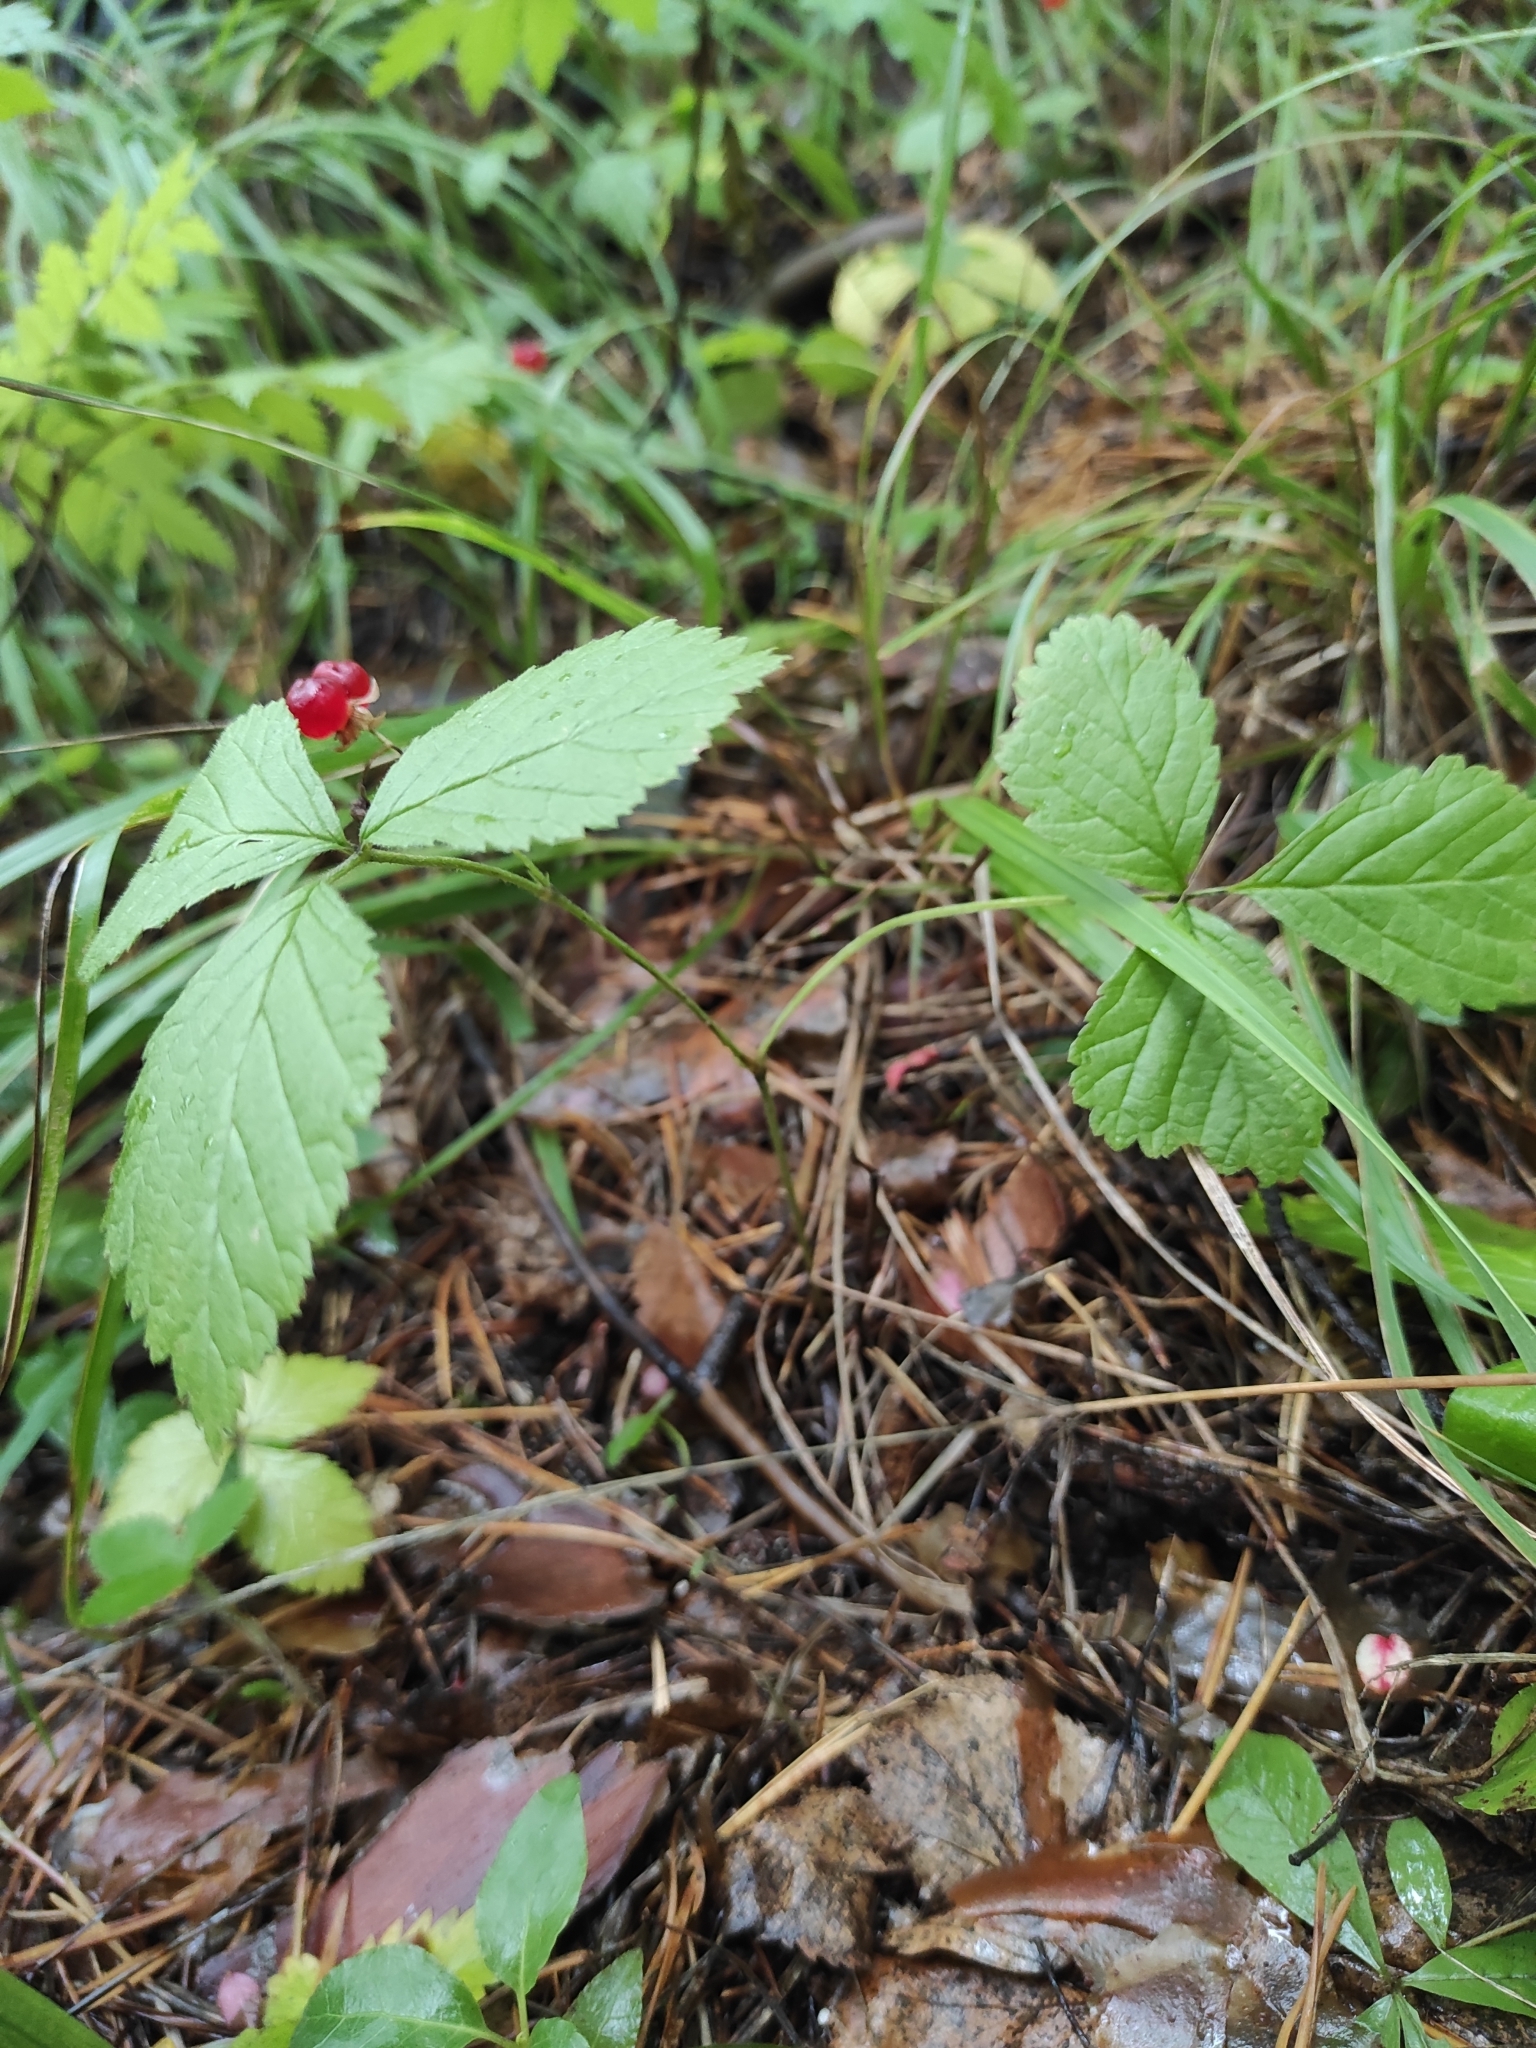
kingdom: Plantae
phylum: Tracheophyta
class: Magnoliopsida
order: Rosales
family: Rosaceae
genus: Rubus
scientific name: Rubus saxatilis
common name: Stone bramble
